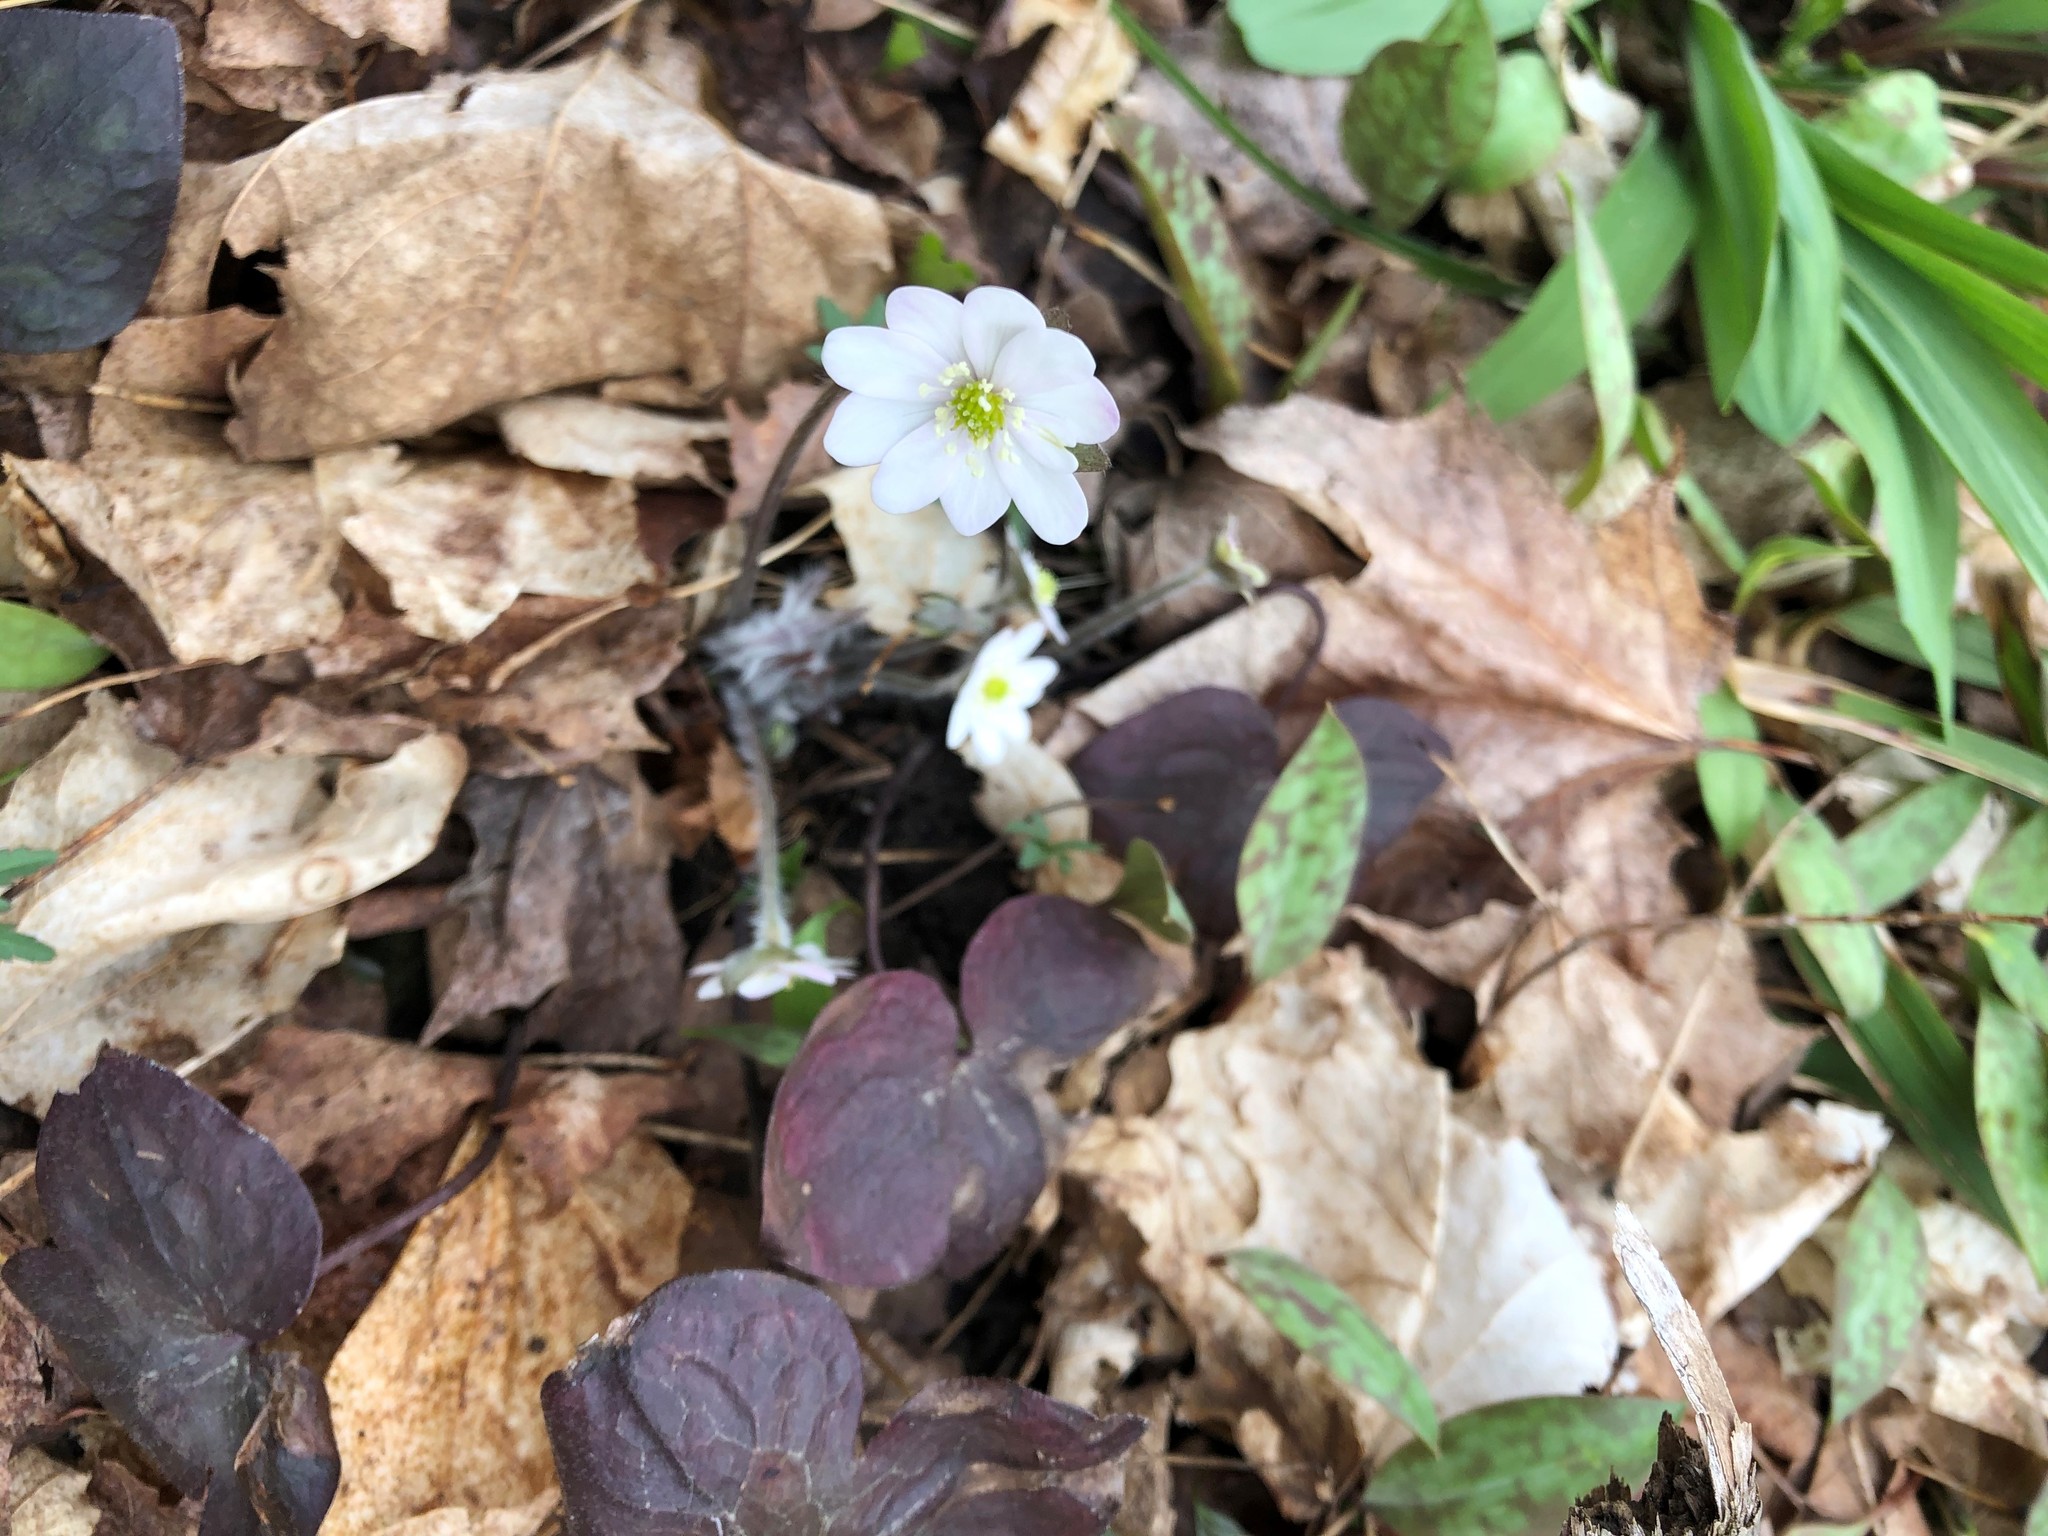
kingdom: Plantae
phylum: Tracheophyta
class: Magnoliopsida
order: Ranunculales
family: Ranunculaceae
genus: Hepatica
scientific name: Hepatica americana
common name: American hepatica
